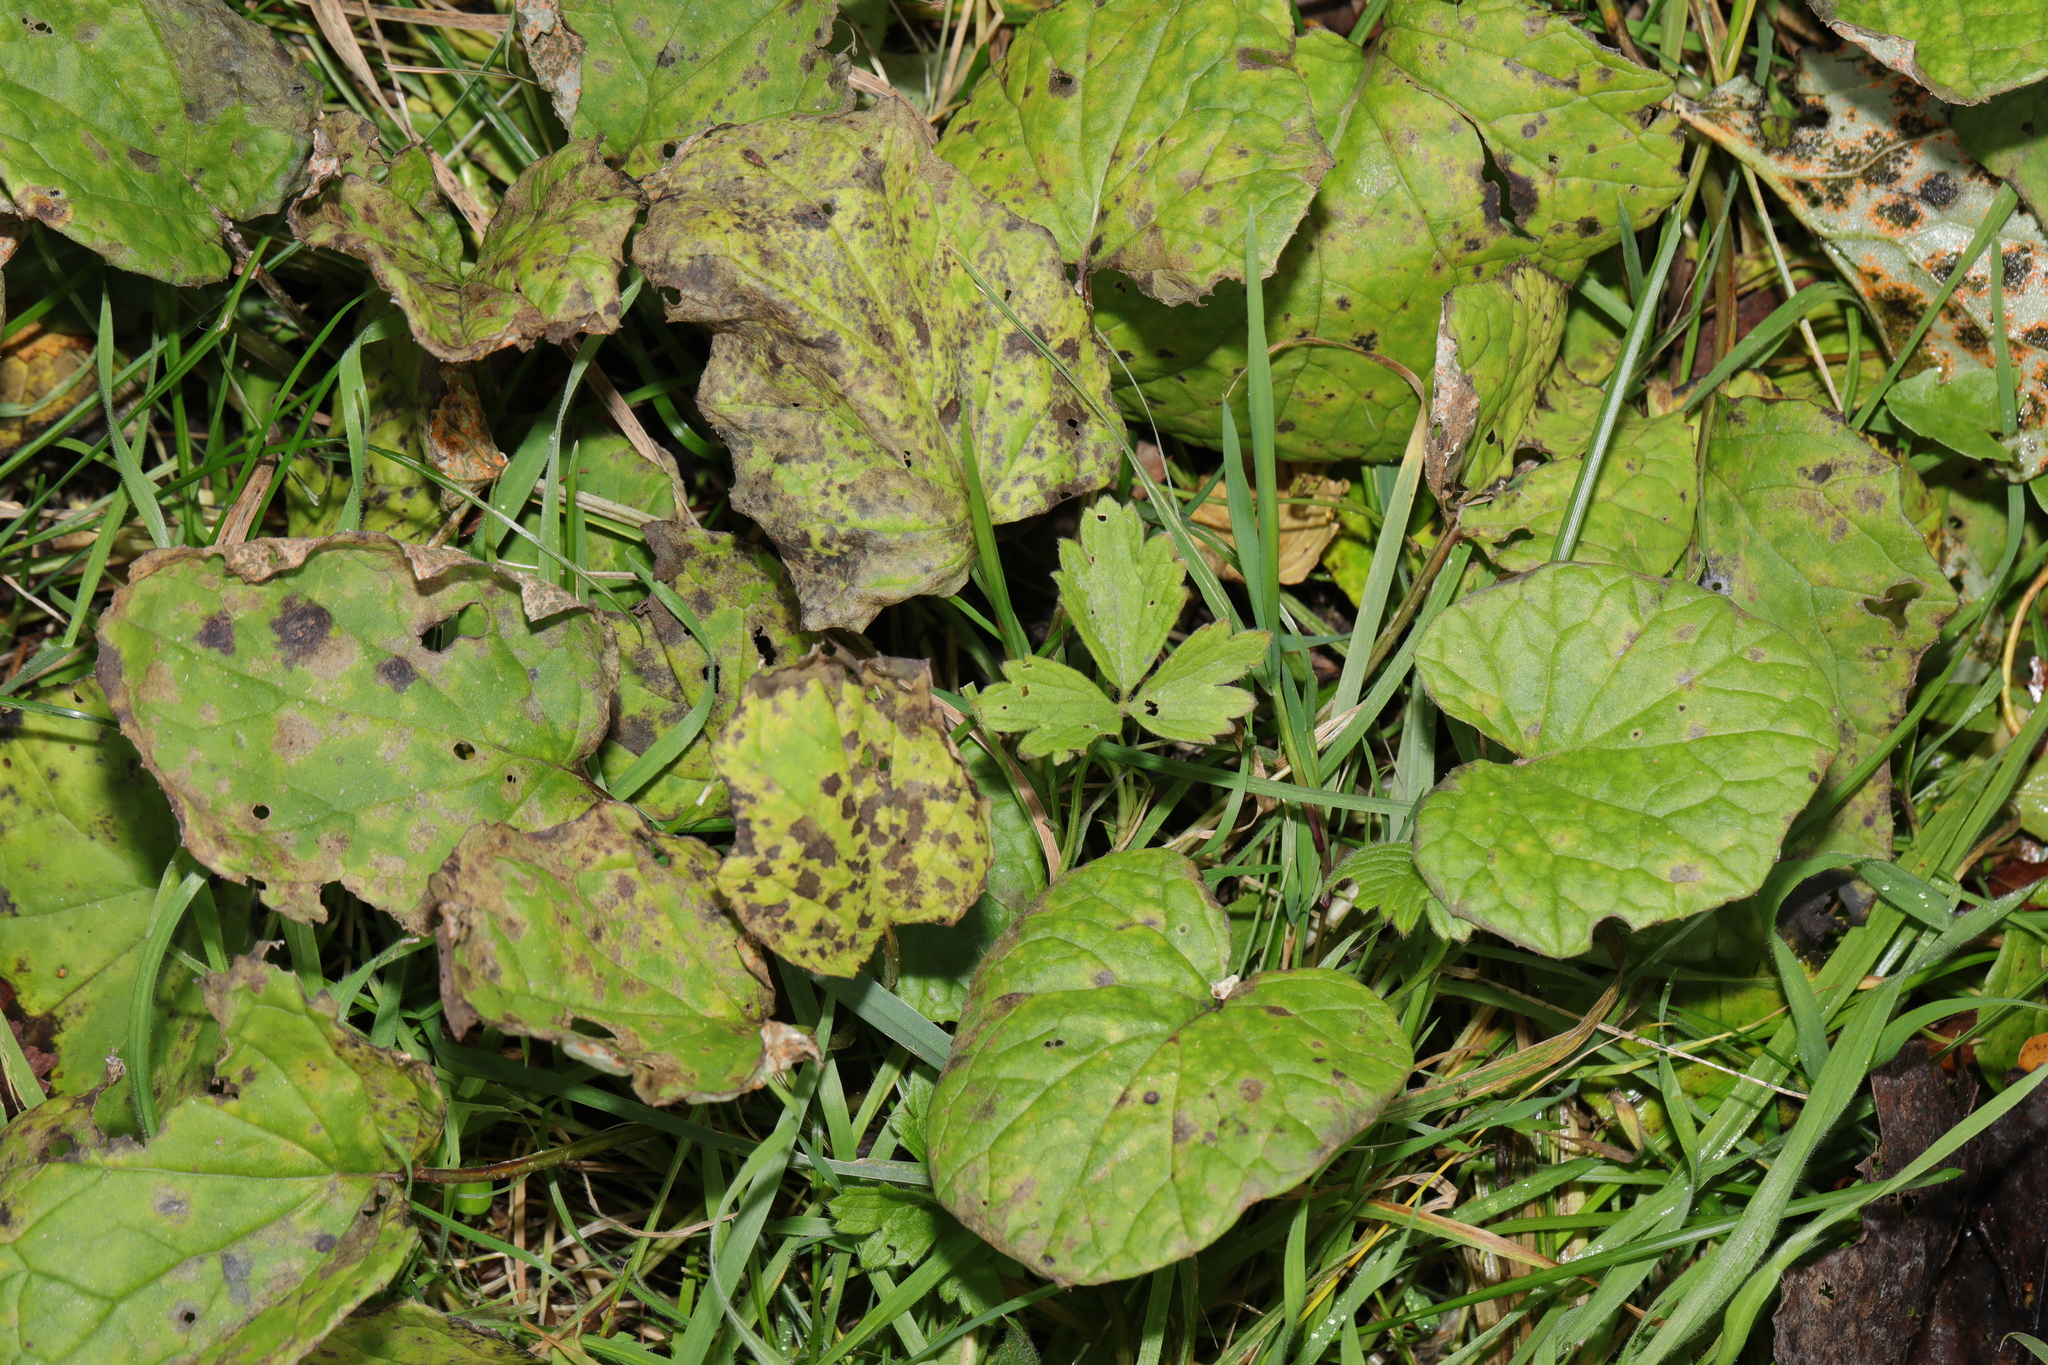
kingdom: Plantae
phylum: Tracheophyta
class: Magnoliopsida
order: Asterales
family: Asteraceae
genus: Tussilago
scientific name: Tussilago farfara
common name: Coltsfoot
